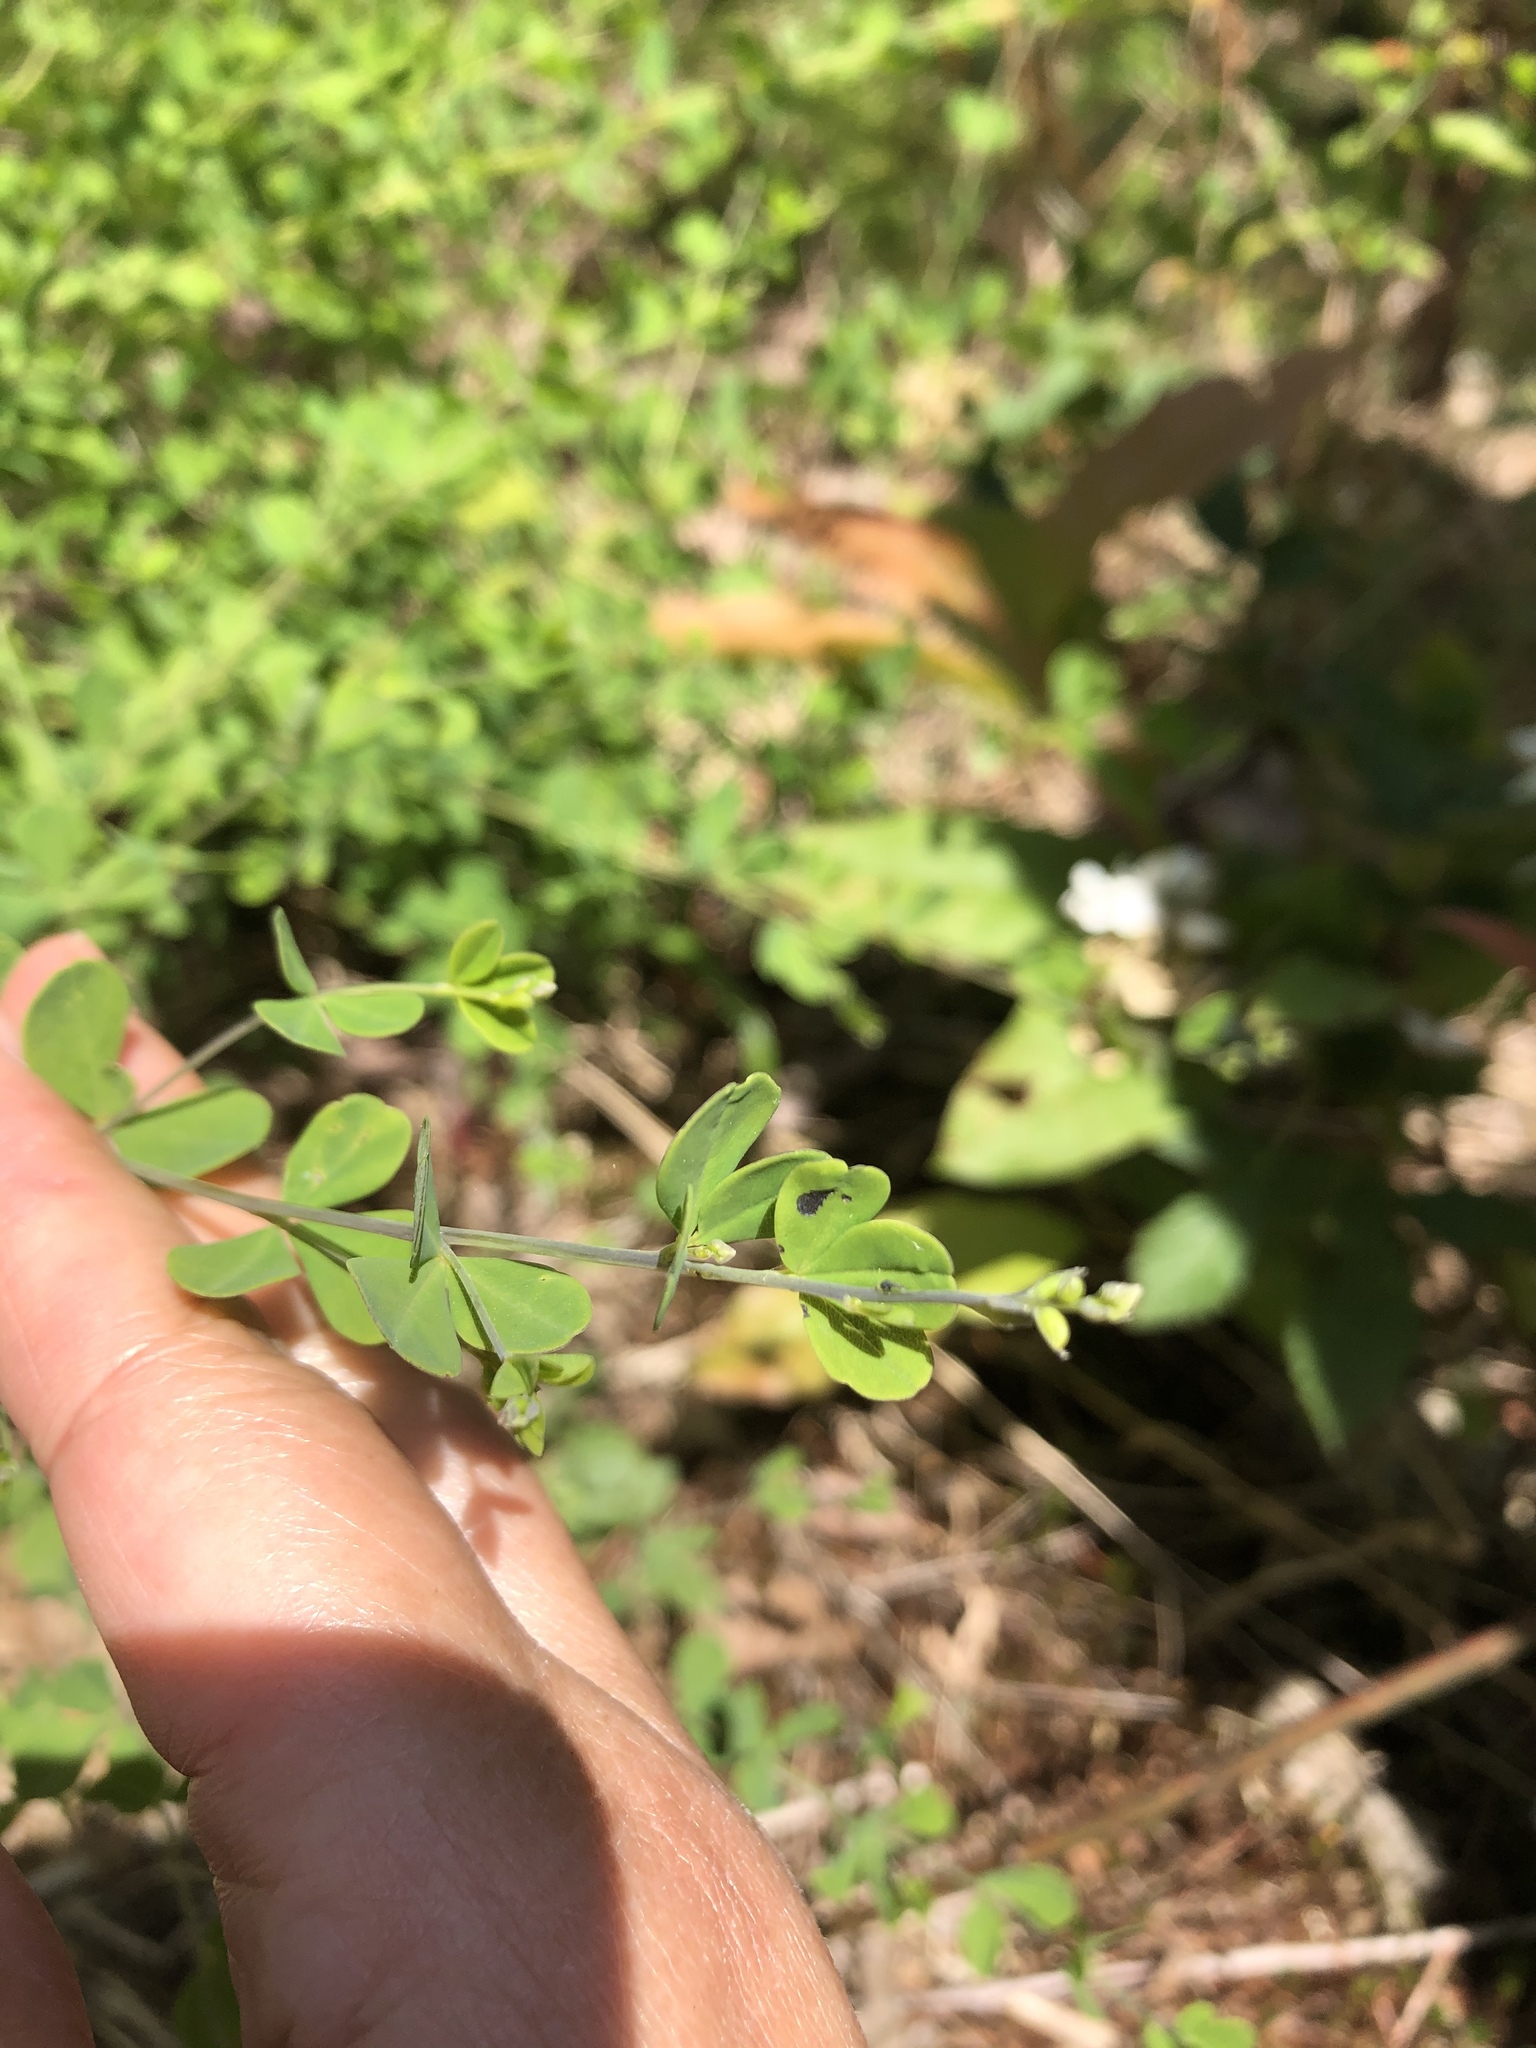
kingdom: Plantae
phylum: Tracheophyta
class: Magnoliopsida
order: Fabales
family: Fabaceae
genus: Baptisia
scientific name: Baptisia tinctoria
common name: Wild indigo
